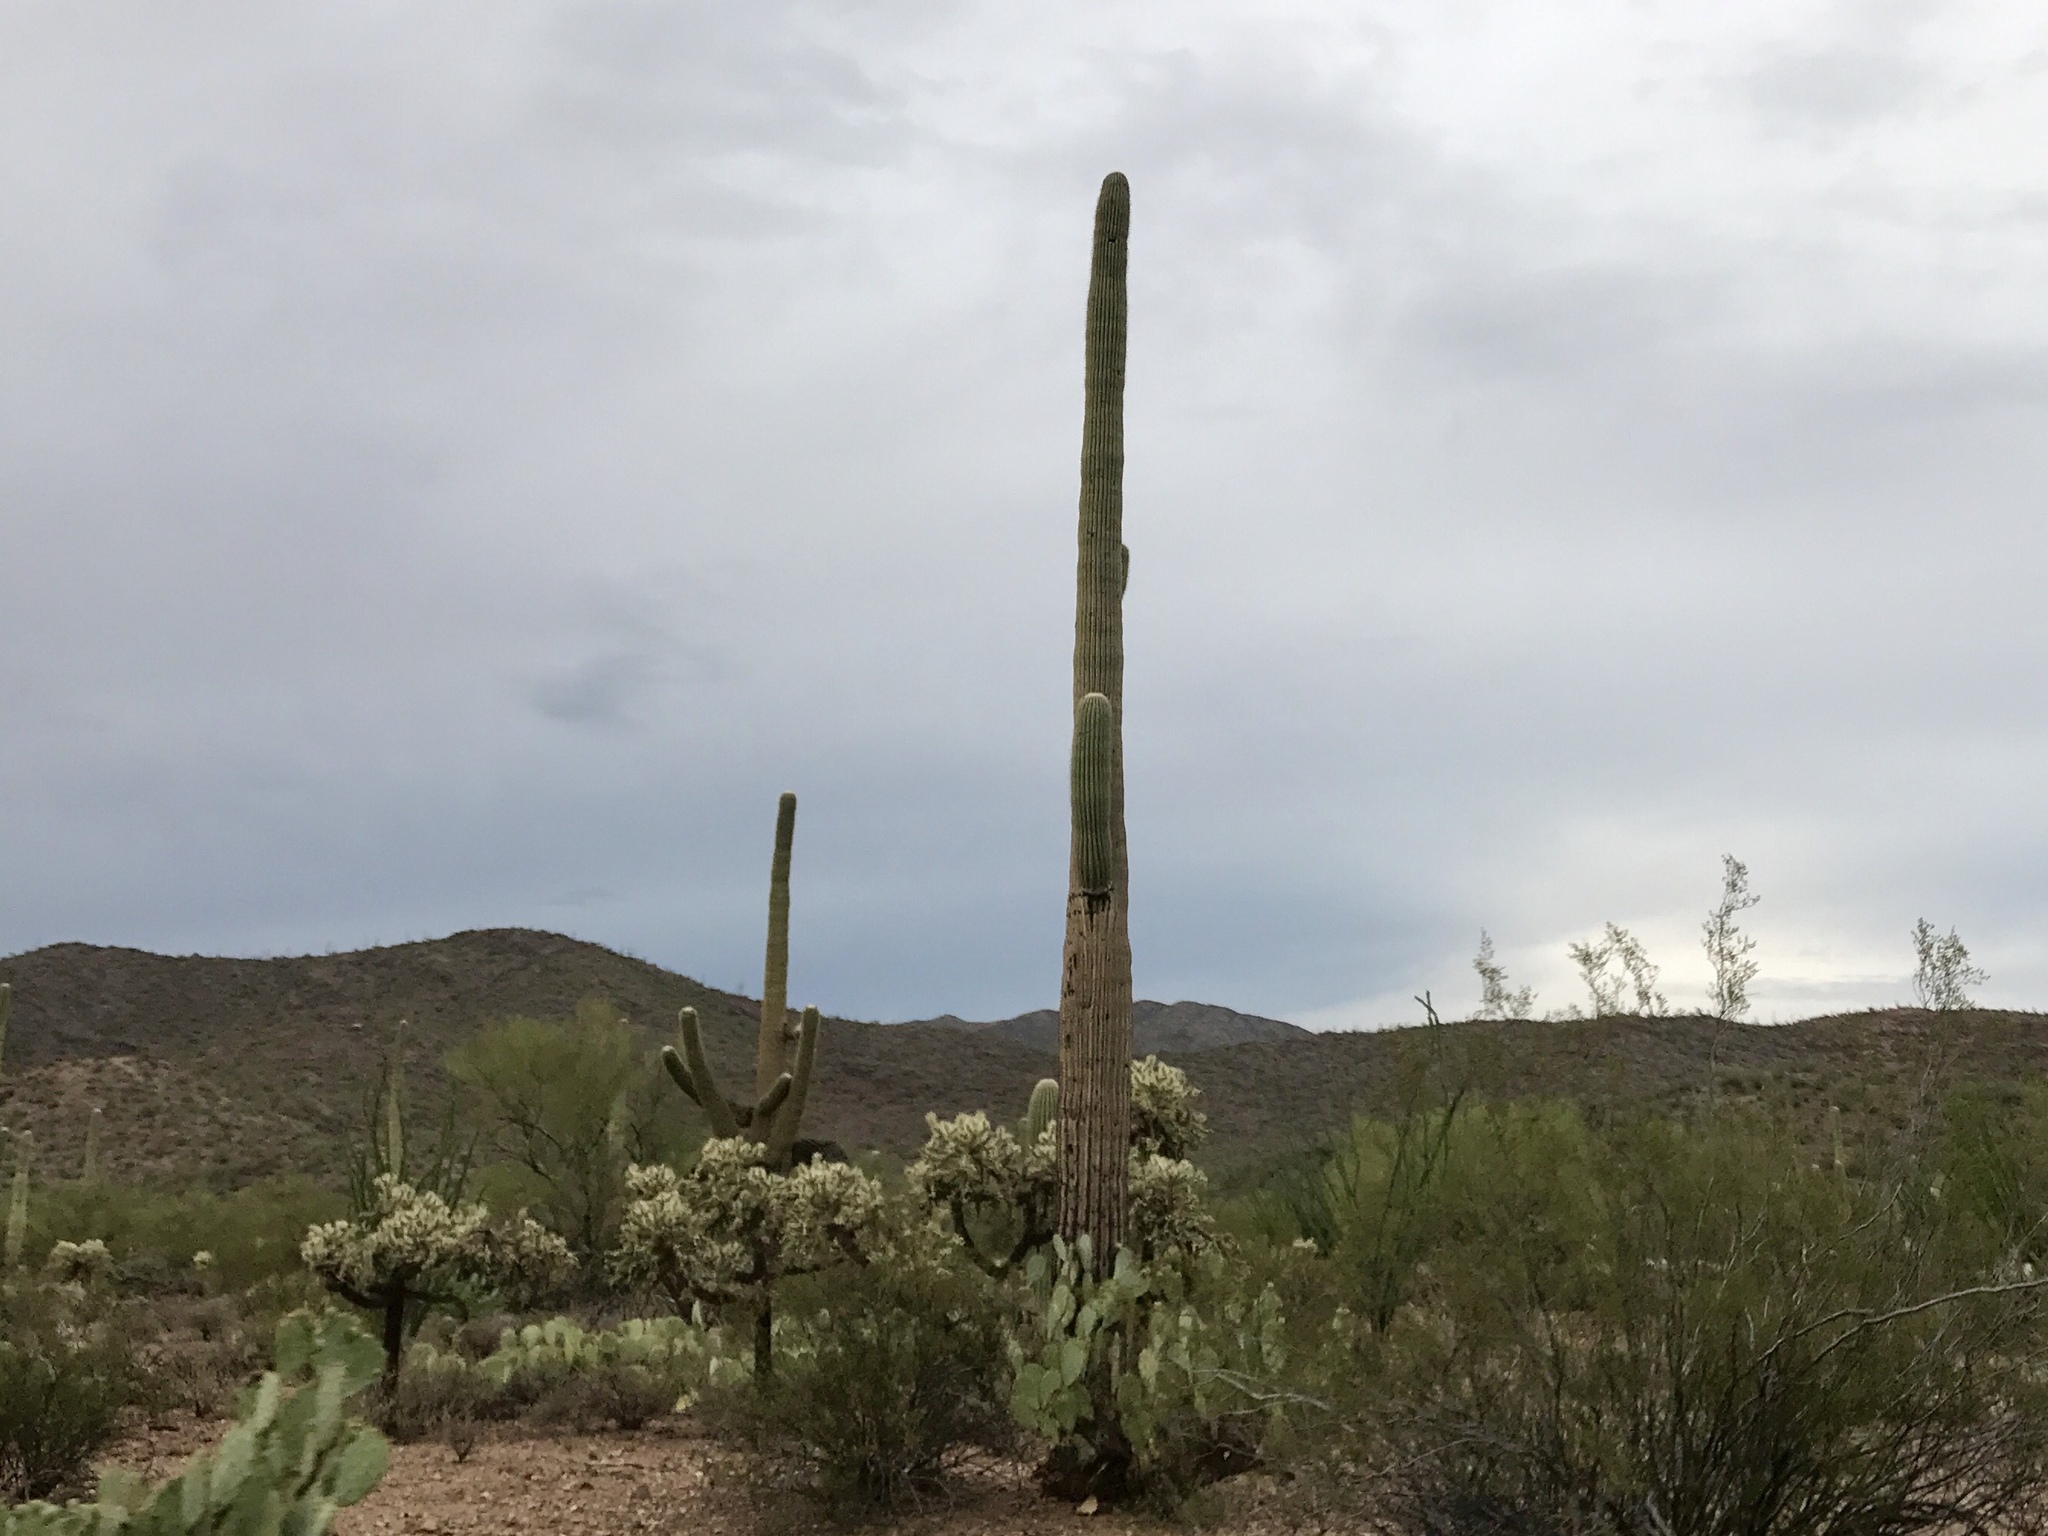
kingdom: Plantae
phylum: Tracheophyta
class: Magnoliopsida
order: Caryophyllales
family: Cactaceae
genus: Carnegiea
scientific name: Carnegiea gigantea
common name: Saguaro
